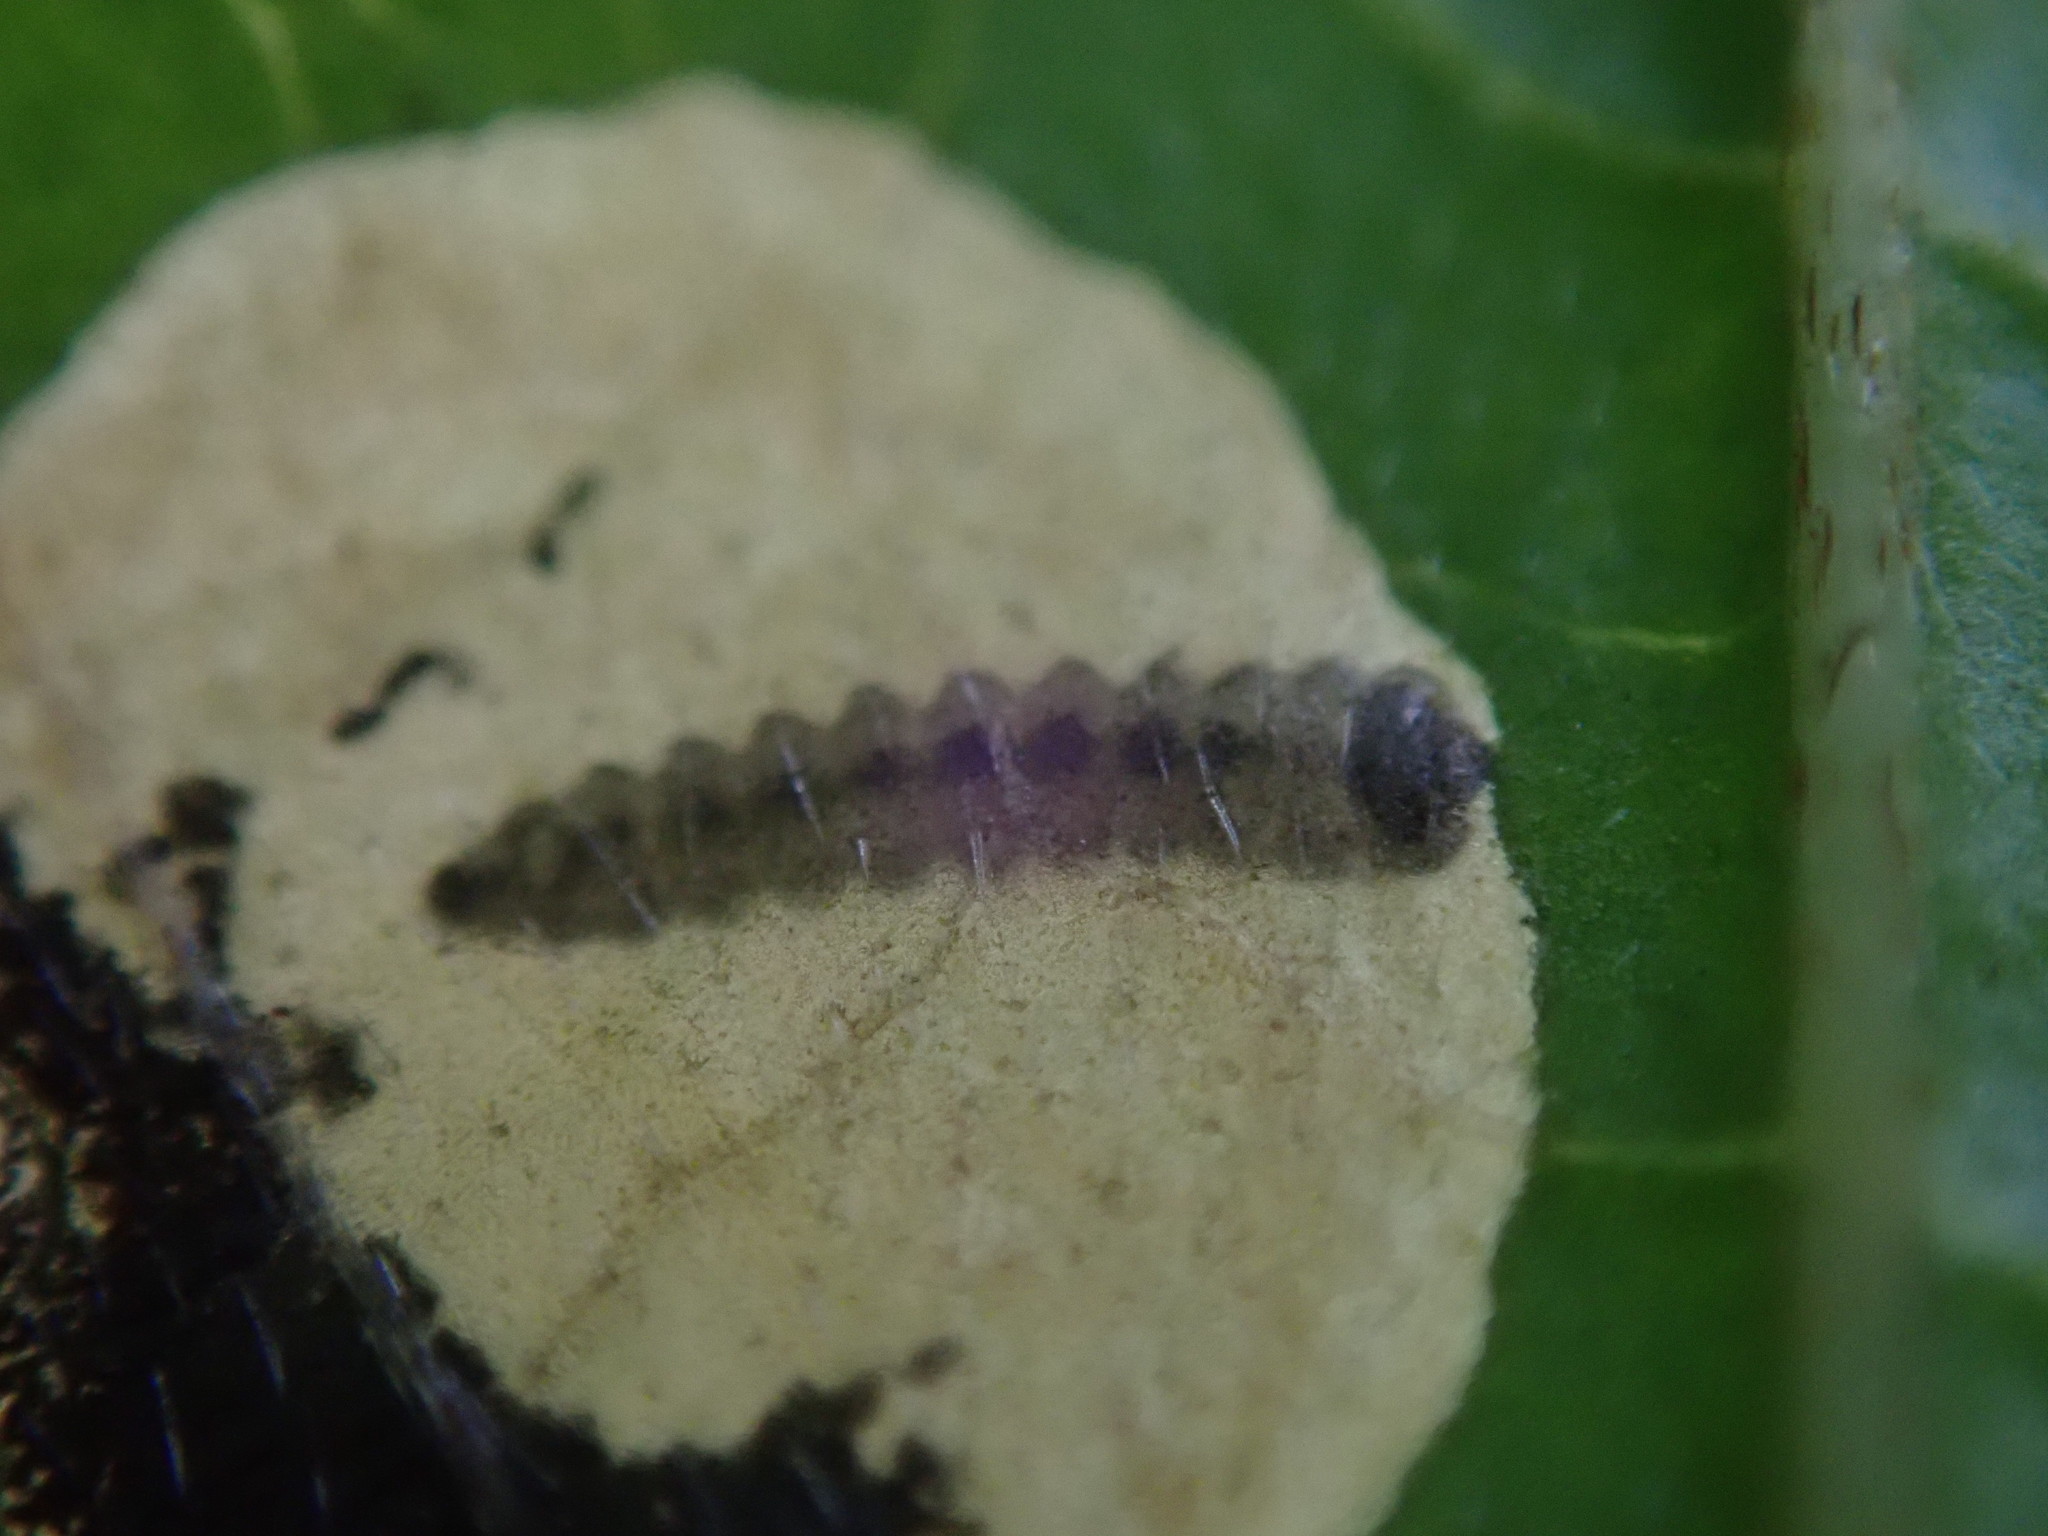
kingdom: Animalia
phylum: Arthropoda
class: Insecta
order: Lepidoptera
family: Heliozelidae
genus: Antispila
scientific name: Antispila metallella
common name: Four-spot lift
